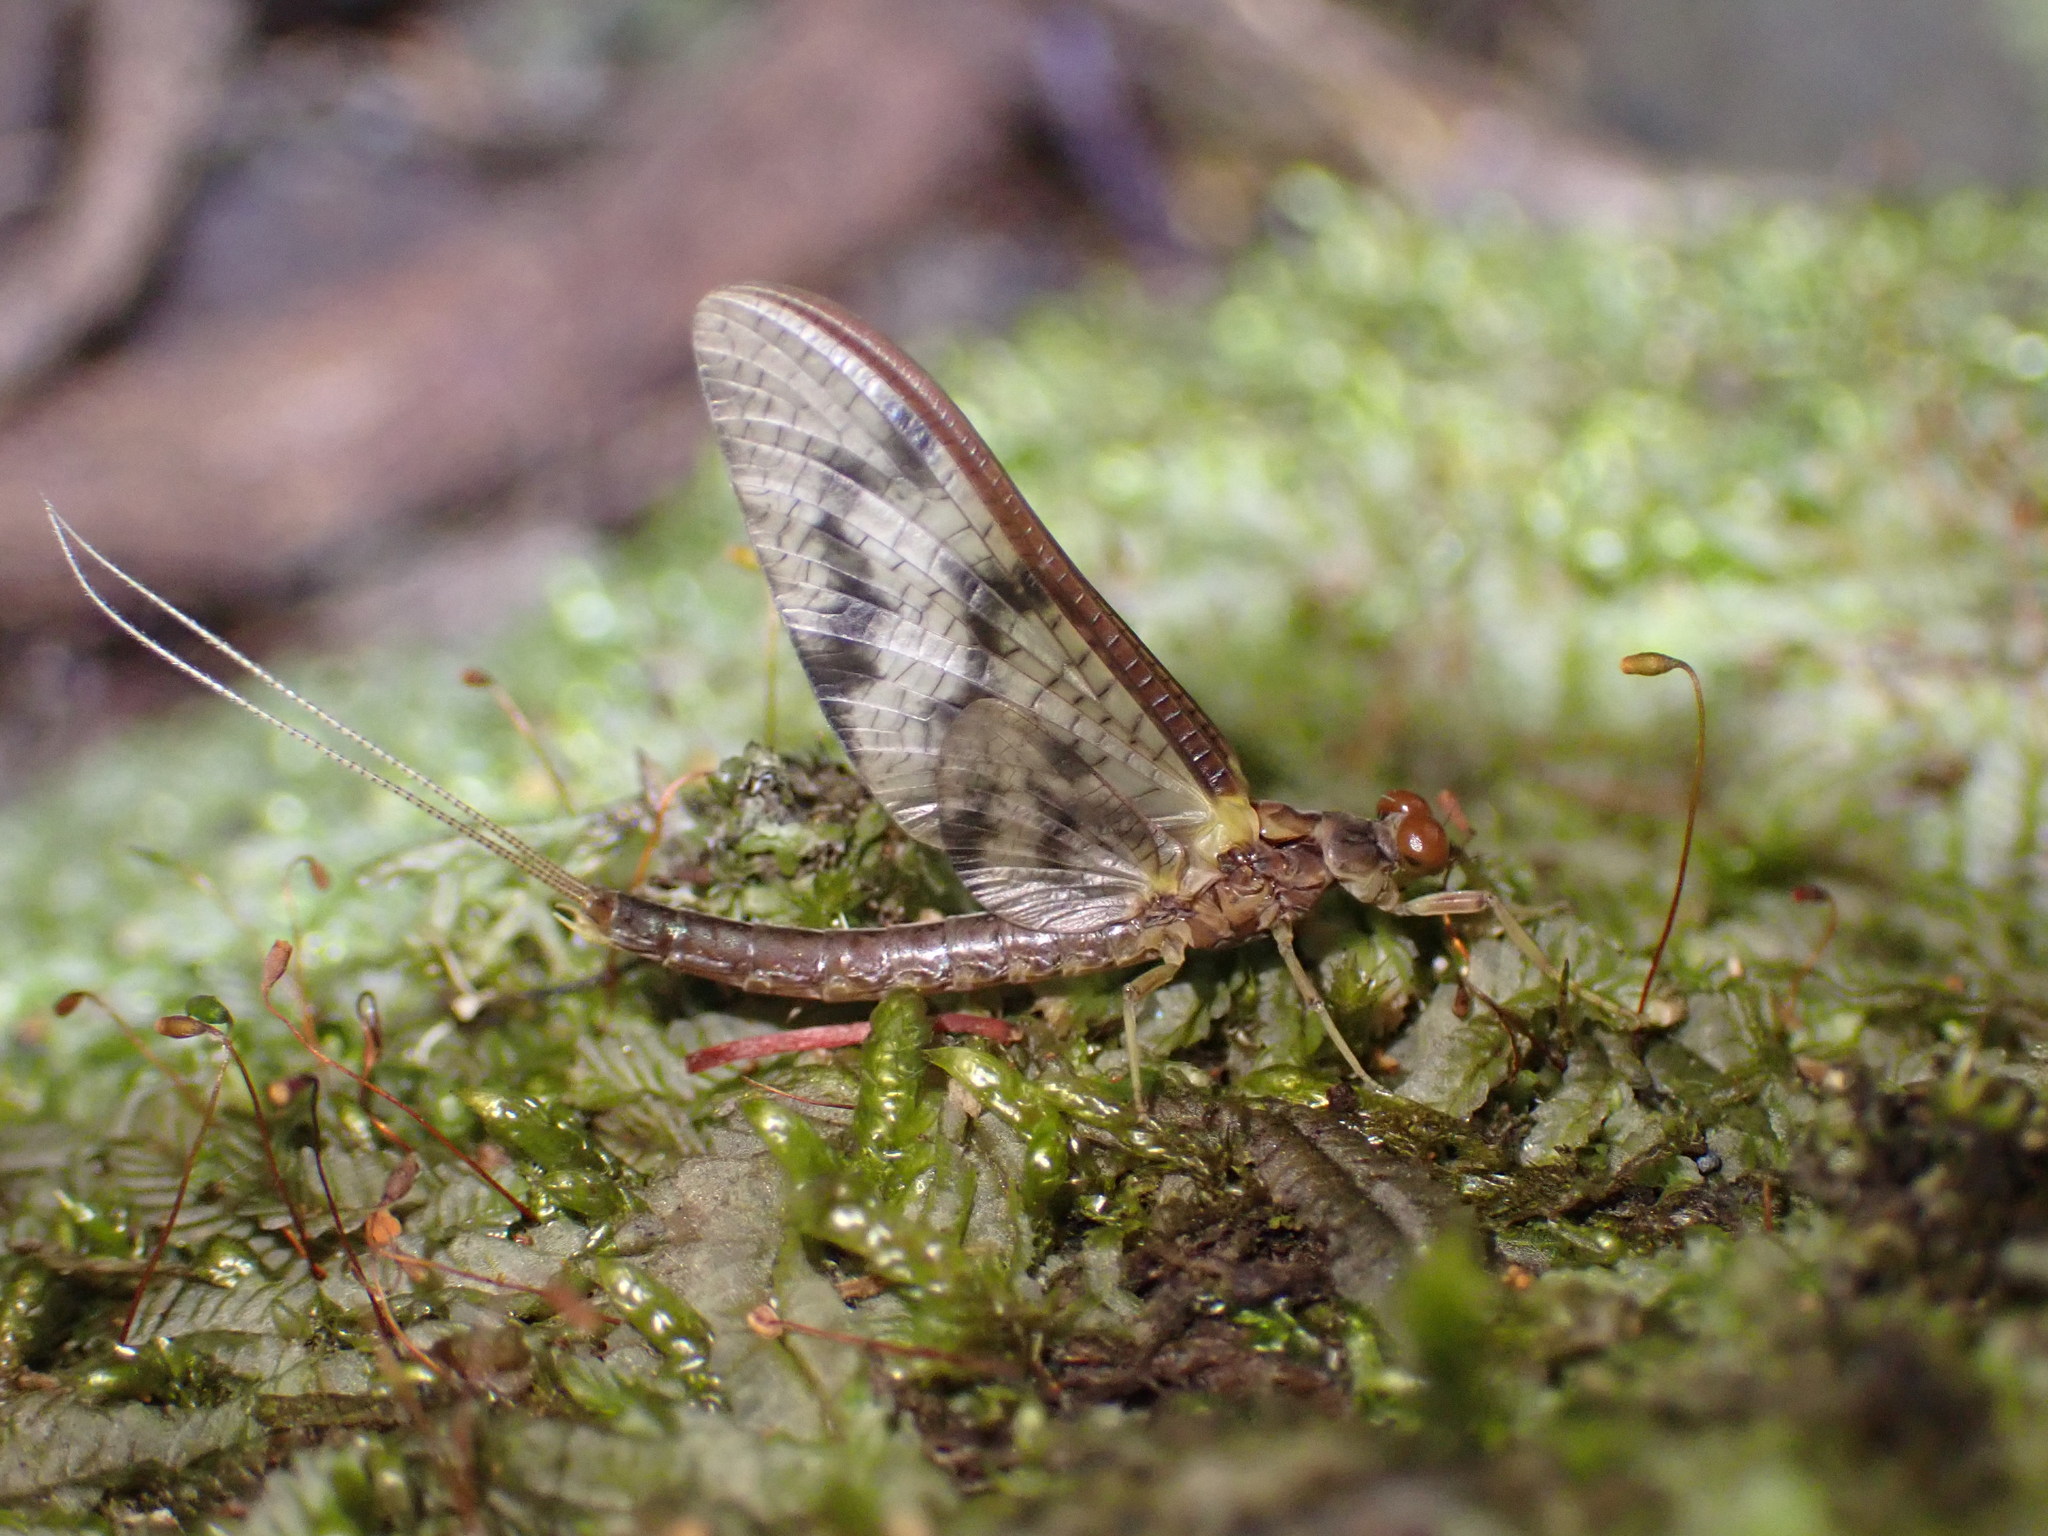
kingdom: Animalia
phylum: Arthropoda
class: Insecta
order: Ephemeroptera
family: Ichthybotidae
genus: Ichthybotus
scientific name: Ichthybotus hudsoni
